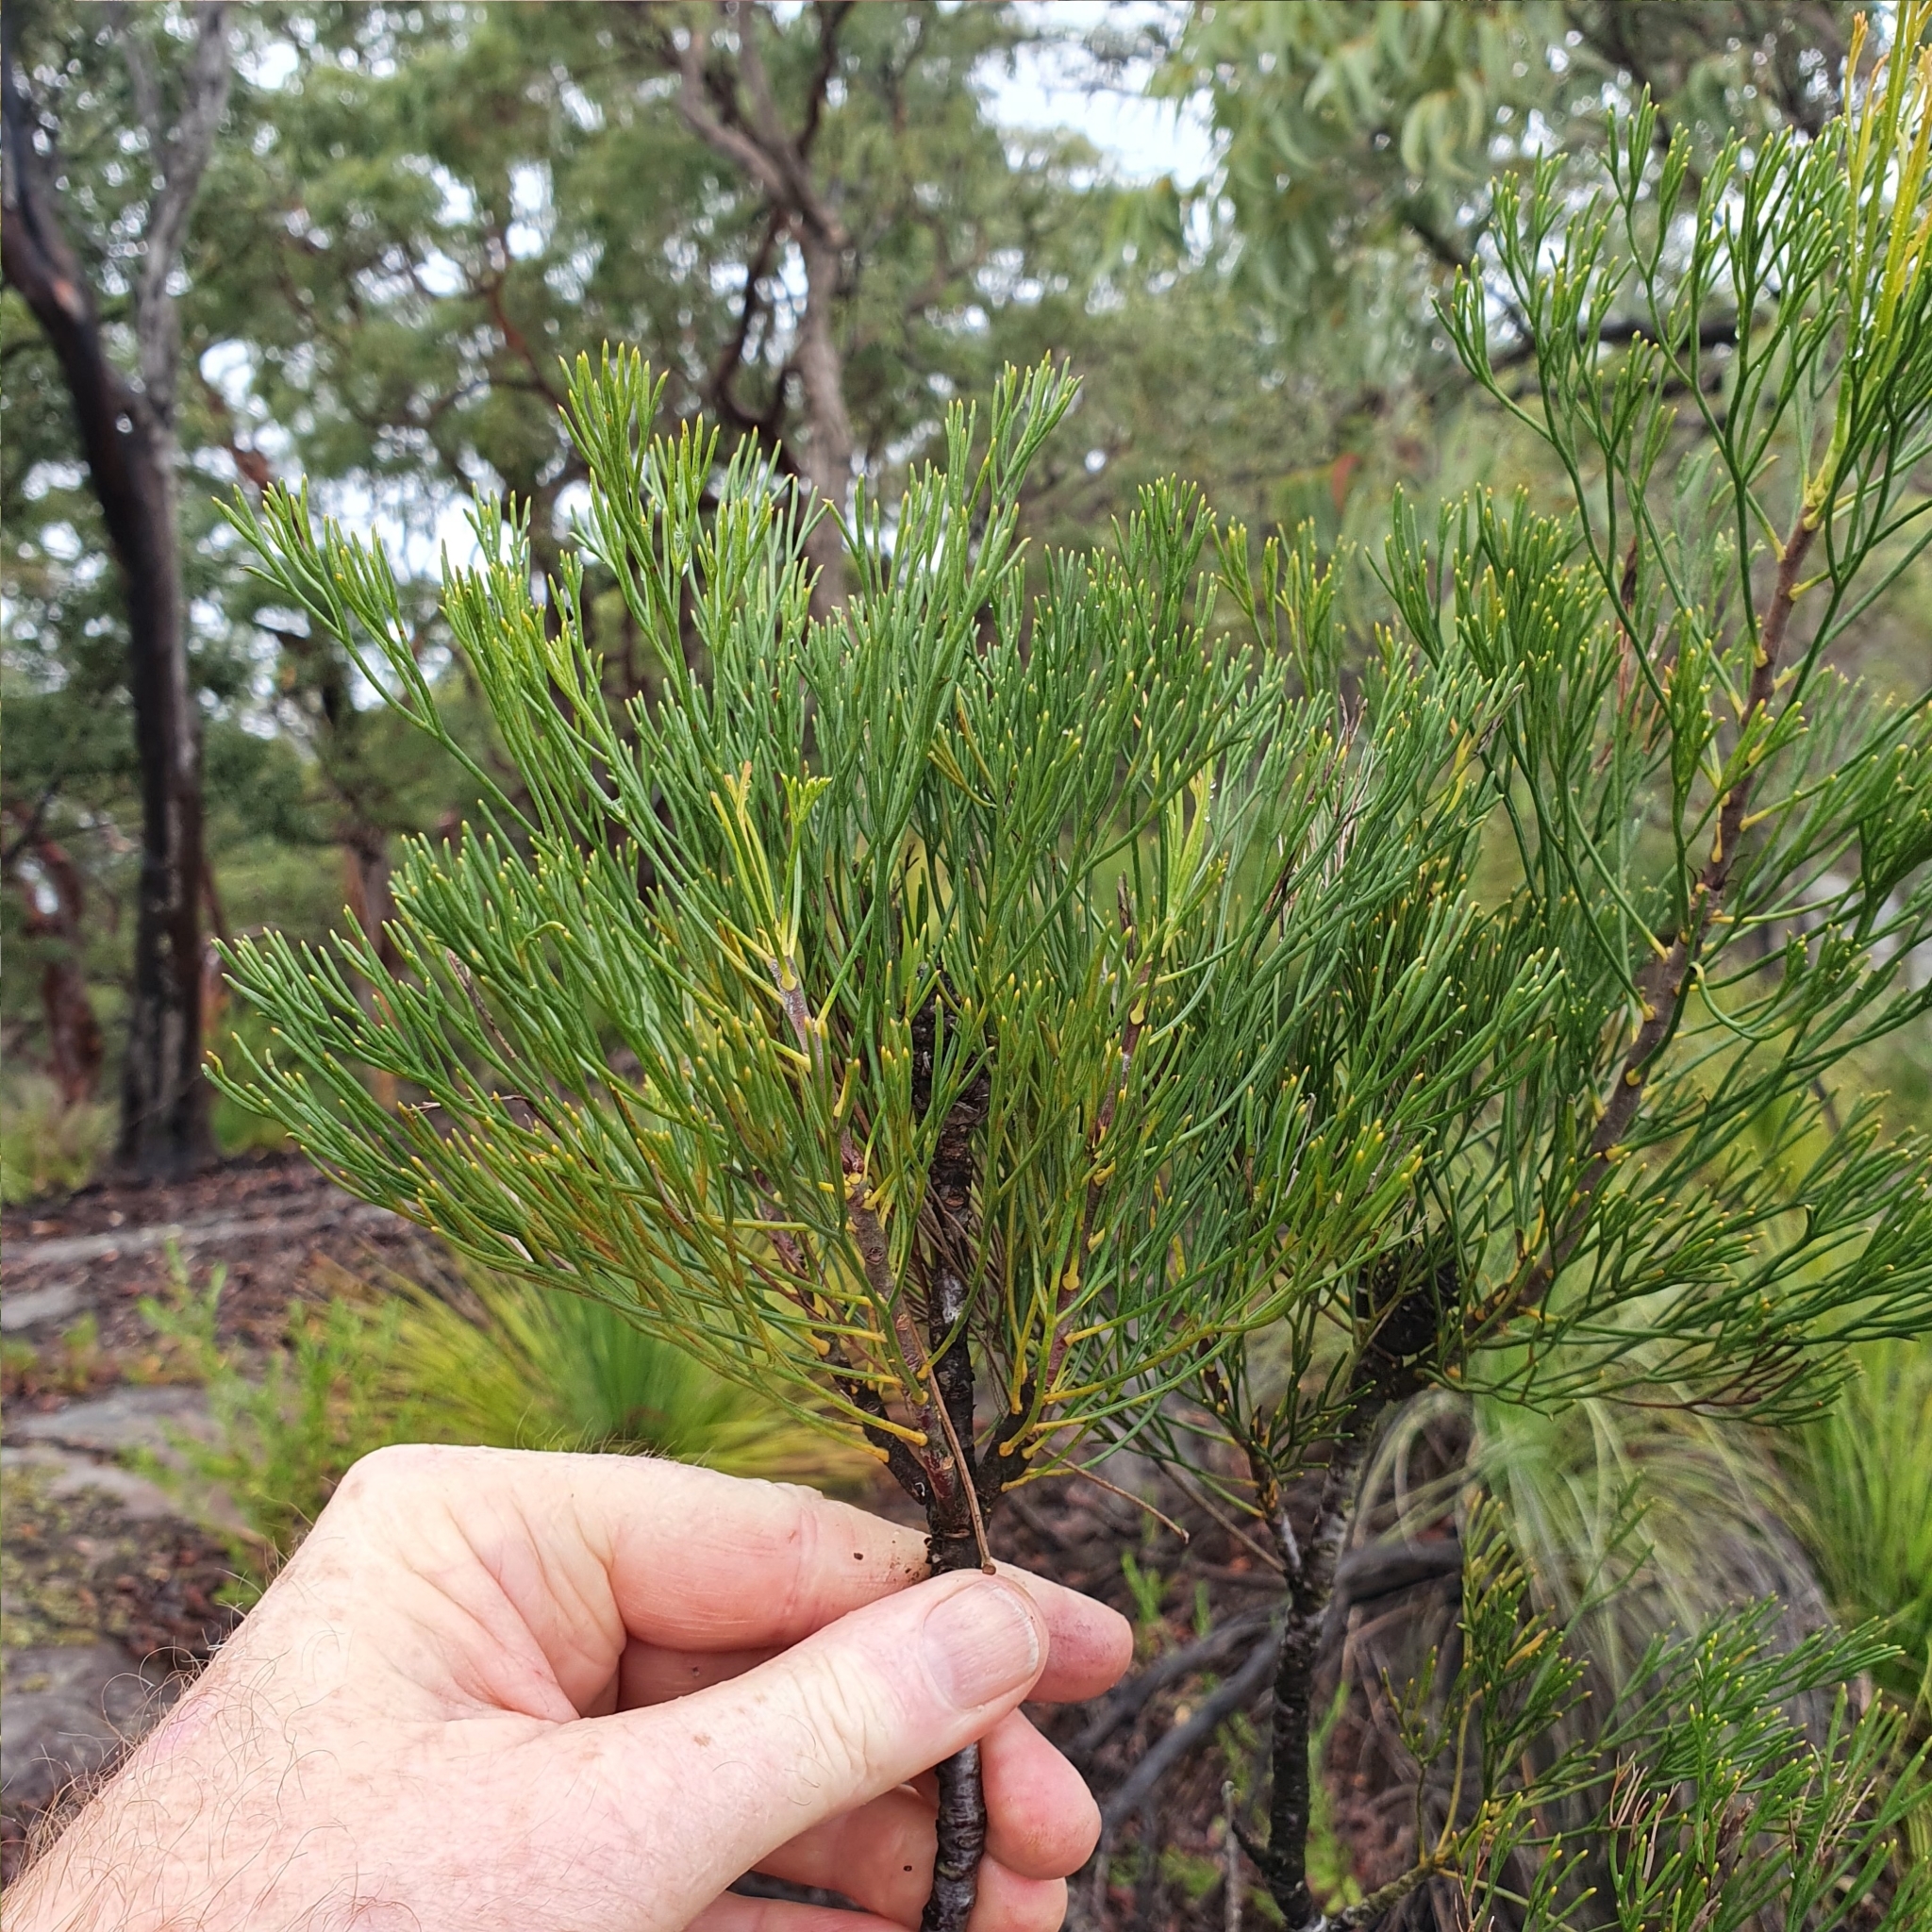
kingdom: Plantae
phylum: Tracheophyta
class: Magnoliopsida
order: Proteales
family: Proteaceae
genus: Isopogon
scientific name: Isopogon anethifolius
